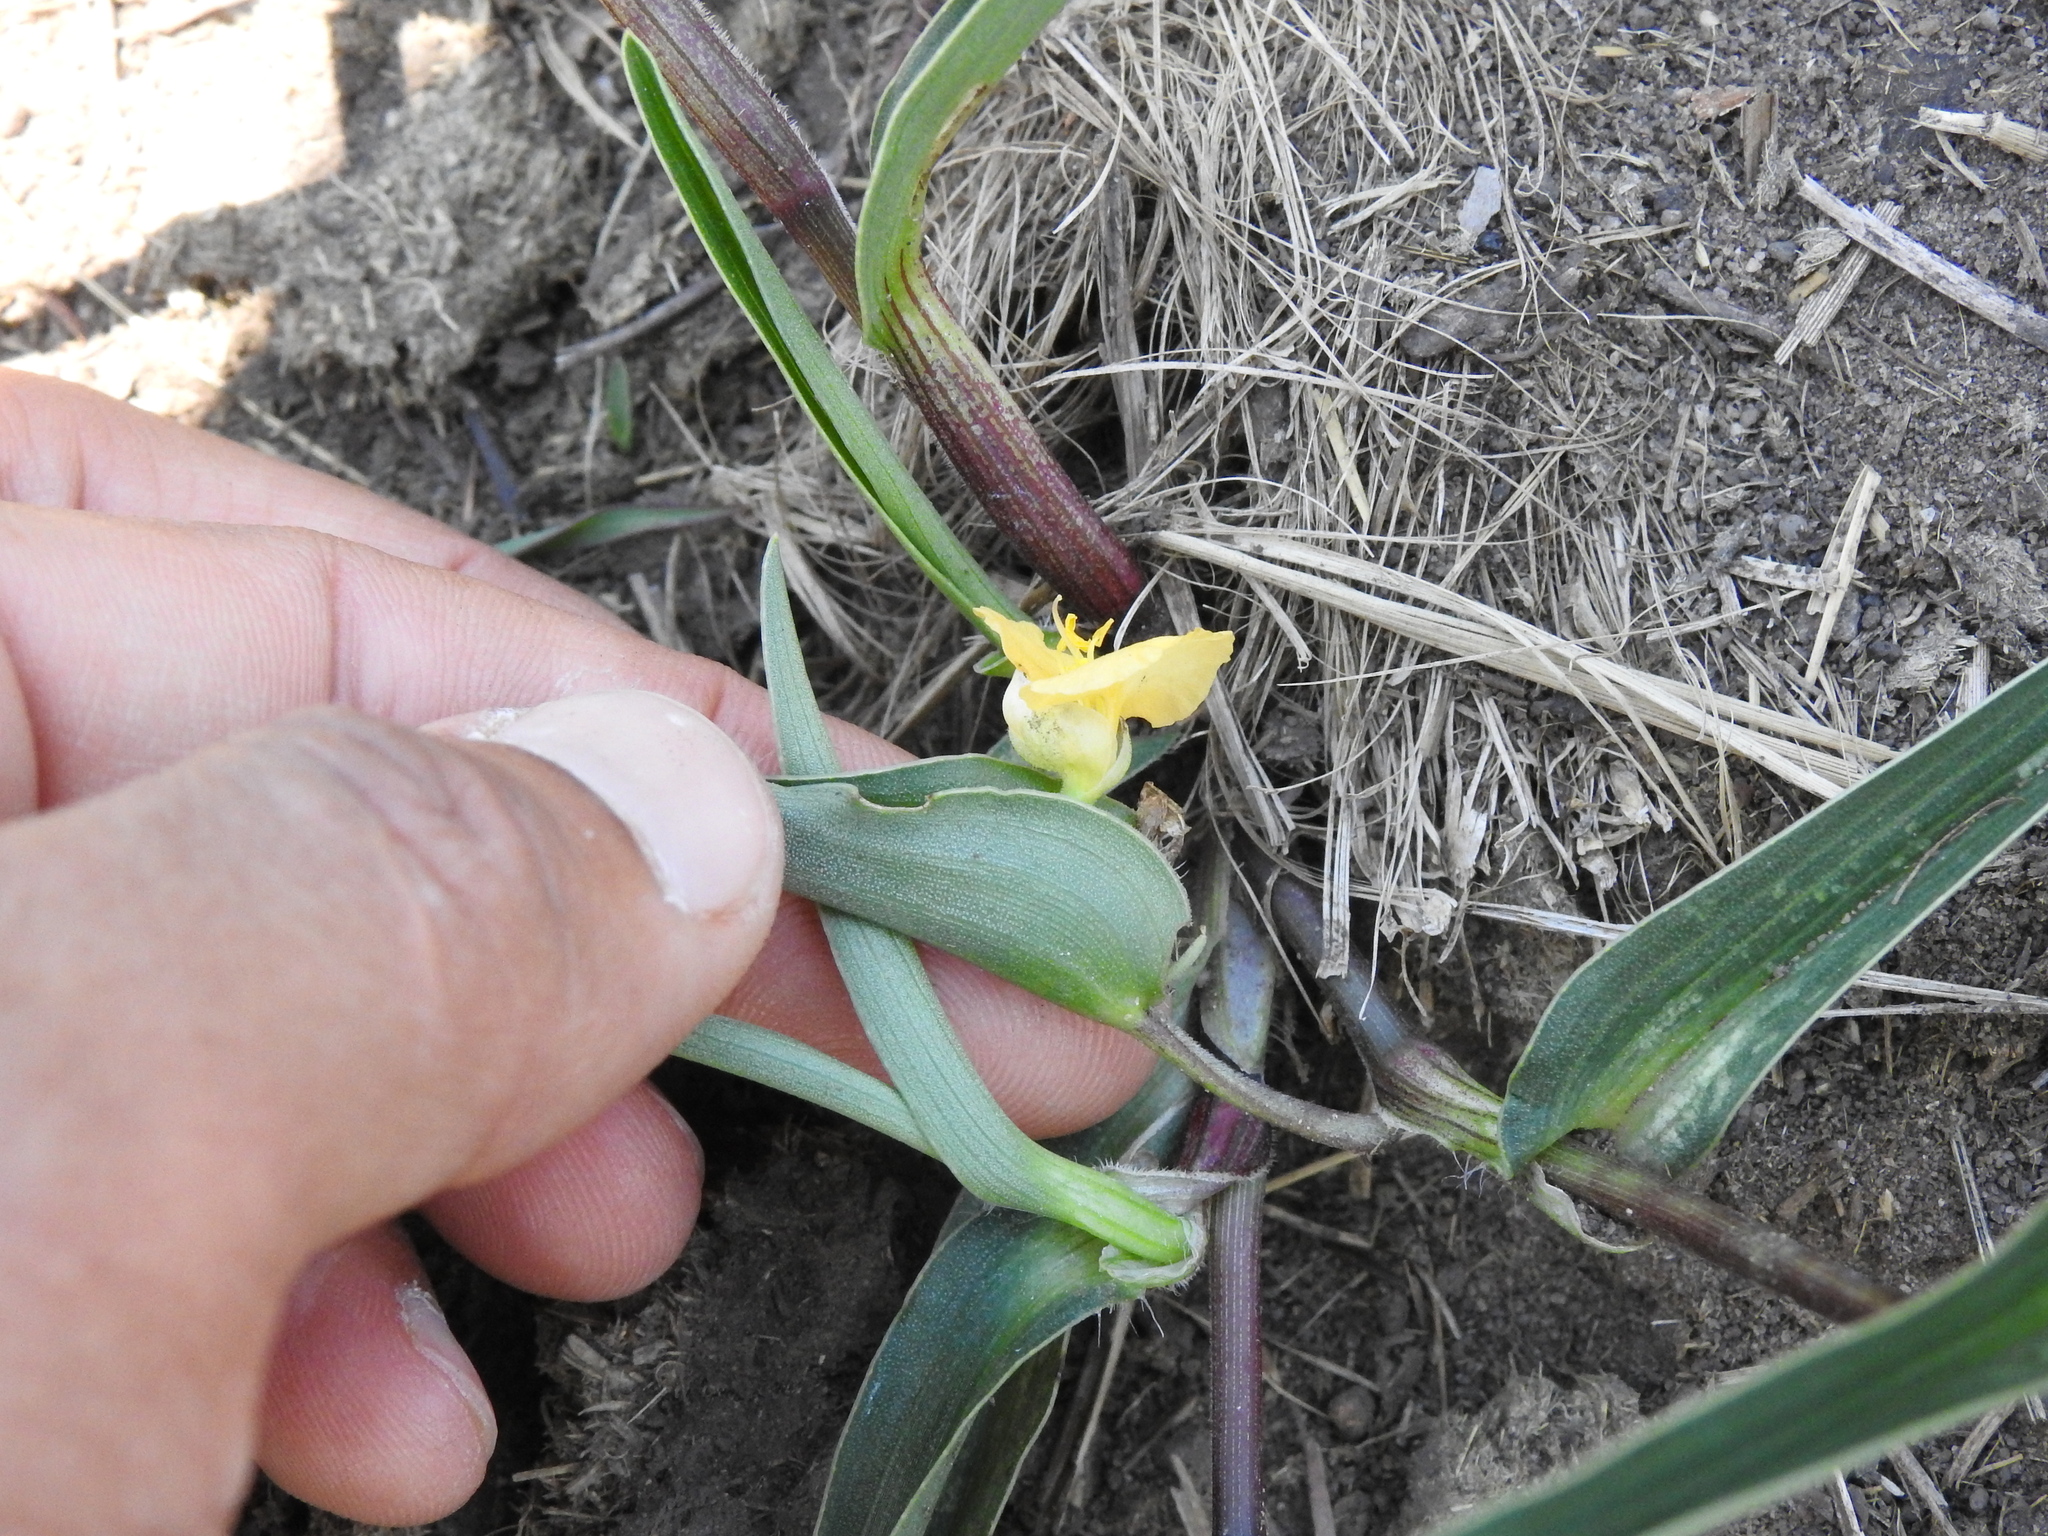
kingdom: Plantae
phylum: Tracheophyta
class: Liliopsida
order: Commelinales
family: Commelinaceae
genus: Commelina
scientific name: Commelina africana
